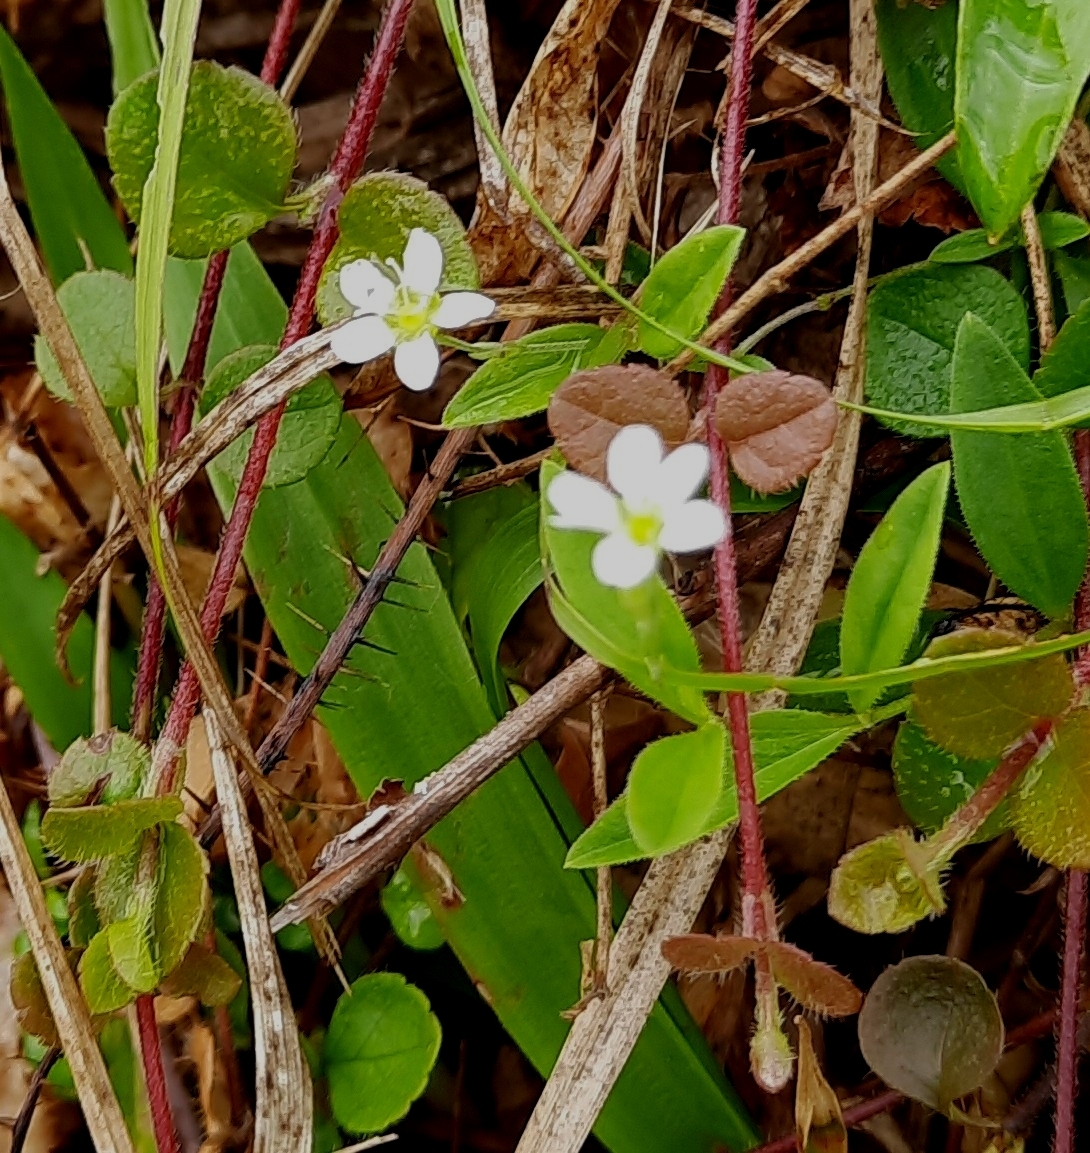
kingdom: Plantae
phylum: Tracheophyta
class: Magnoliopsida
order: Caryophyllales
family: Caryophyllaceae
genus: Moehringia
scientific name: Moehringia lateriflora
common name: Blunt-leaved sandwort
